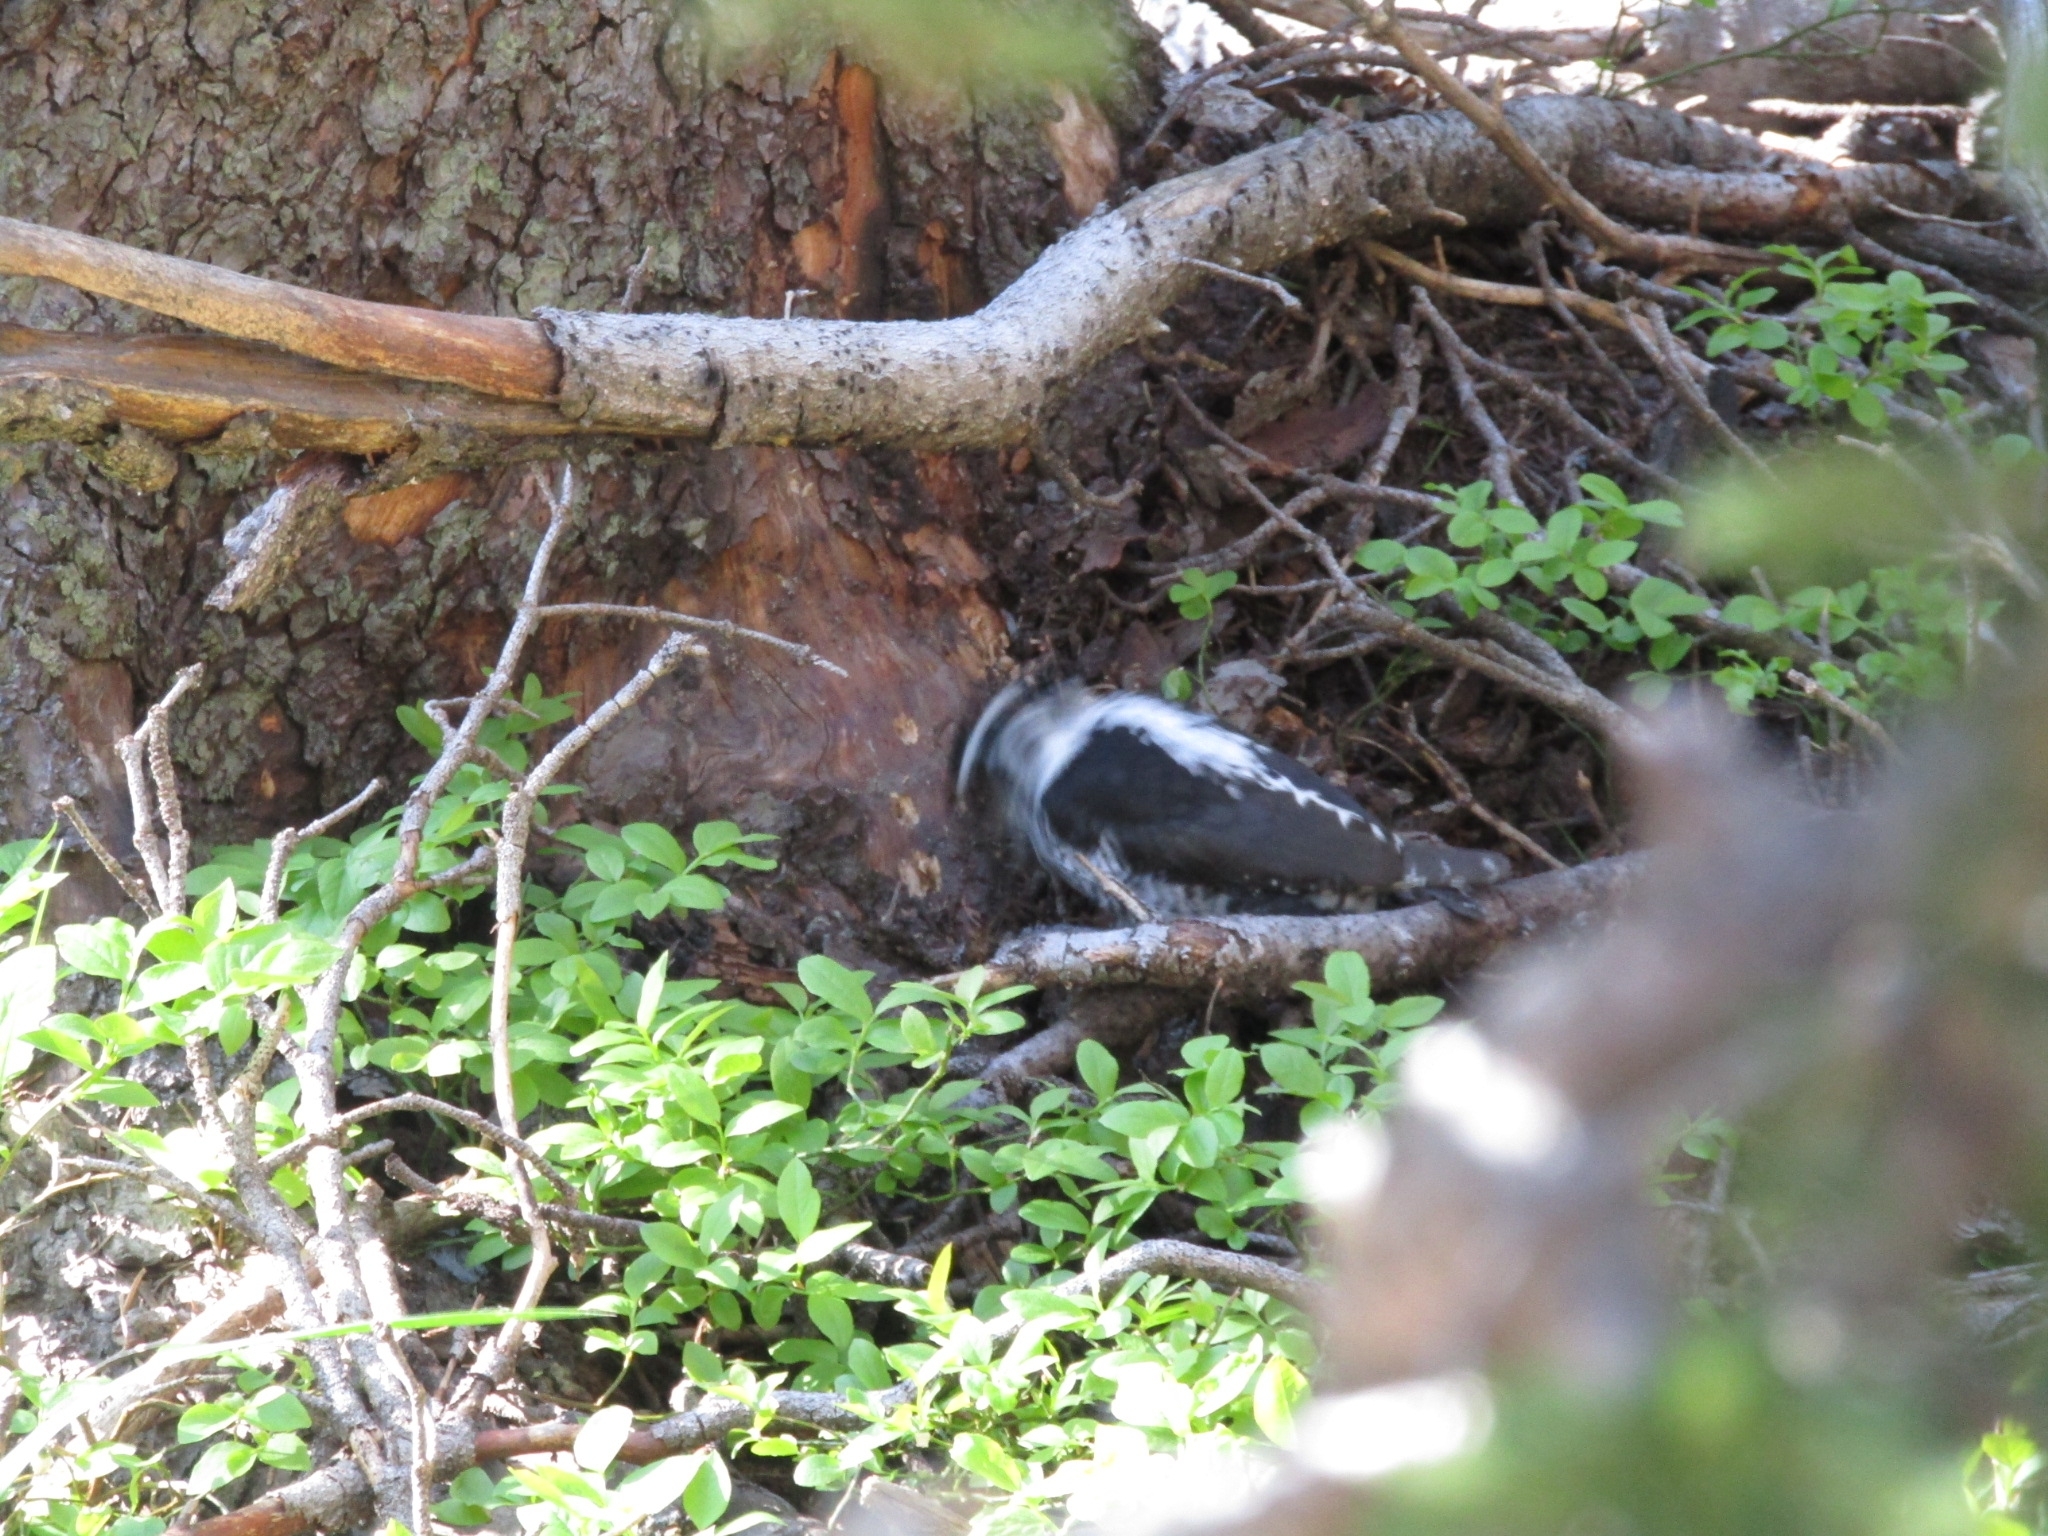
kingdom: Animalia
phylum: Chordata
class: Aves
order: Piciformes
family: Picidae
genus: Picoides
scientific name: Picoides dorsalis
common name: American three-toed woodpecker
